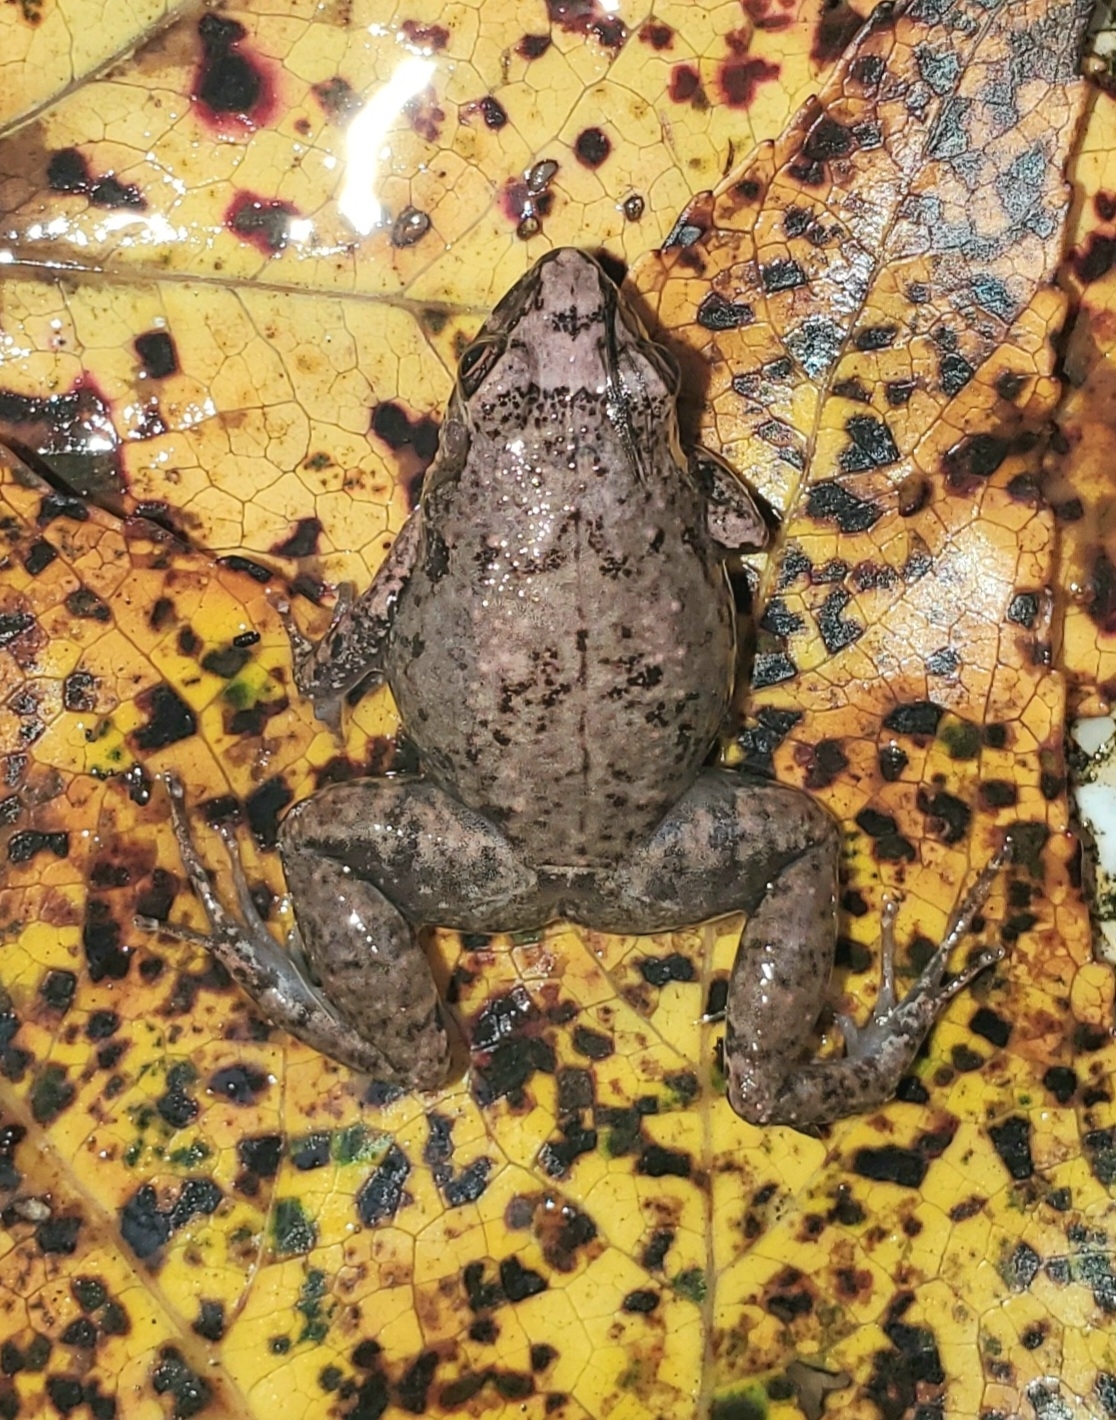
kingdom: Animalia
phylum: Chordata
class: Amphibia
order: Anura
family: Eleutherodactylidae
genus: Eleutherodactylus
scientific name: Eleutherodactylus planirostris
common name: Greenhouse frog
